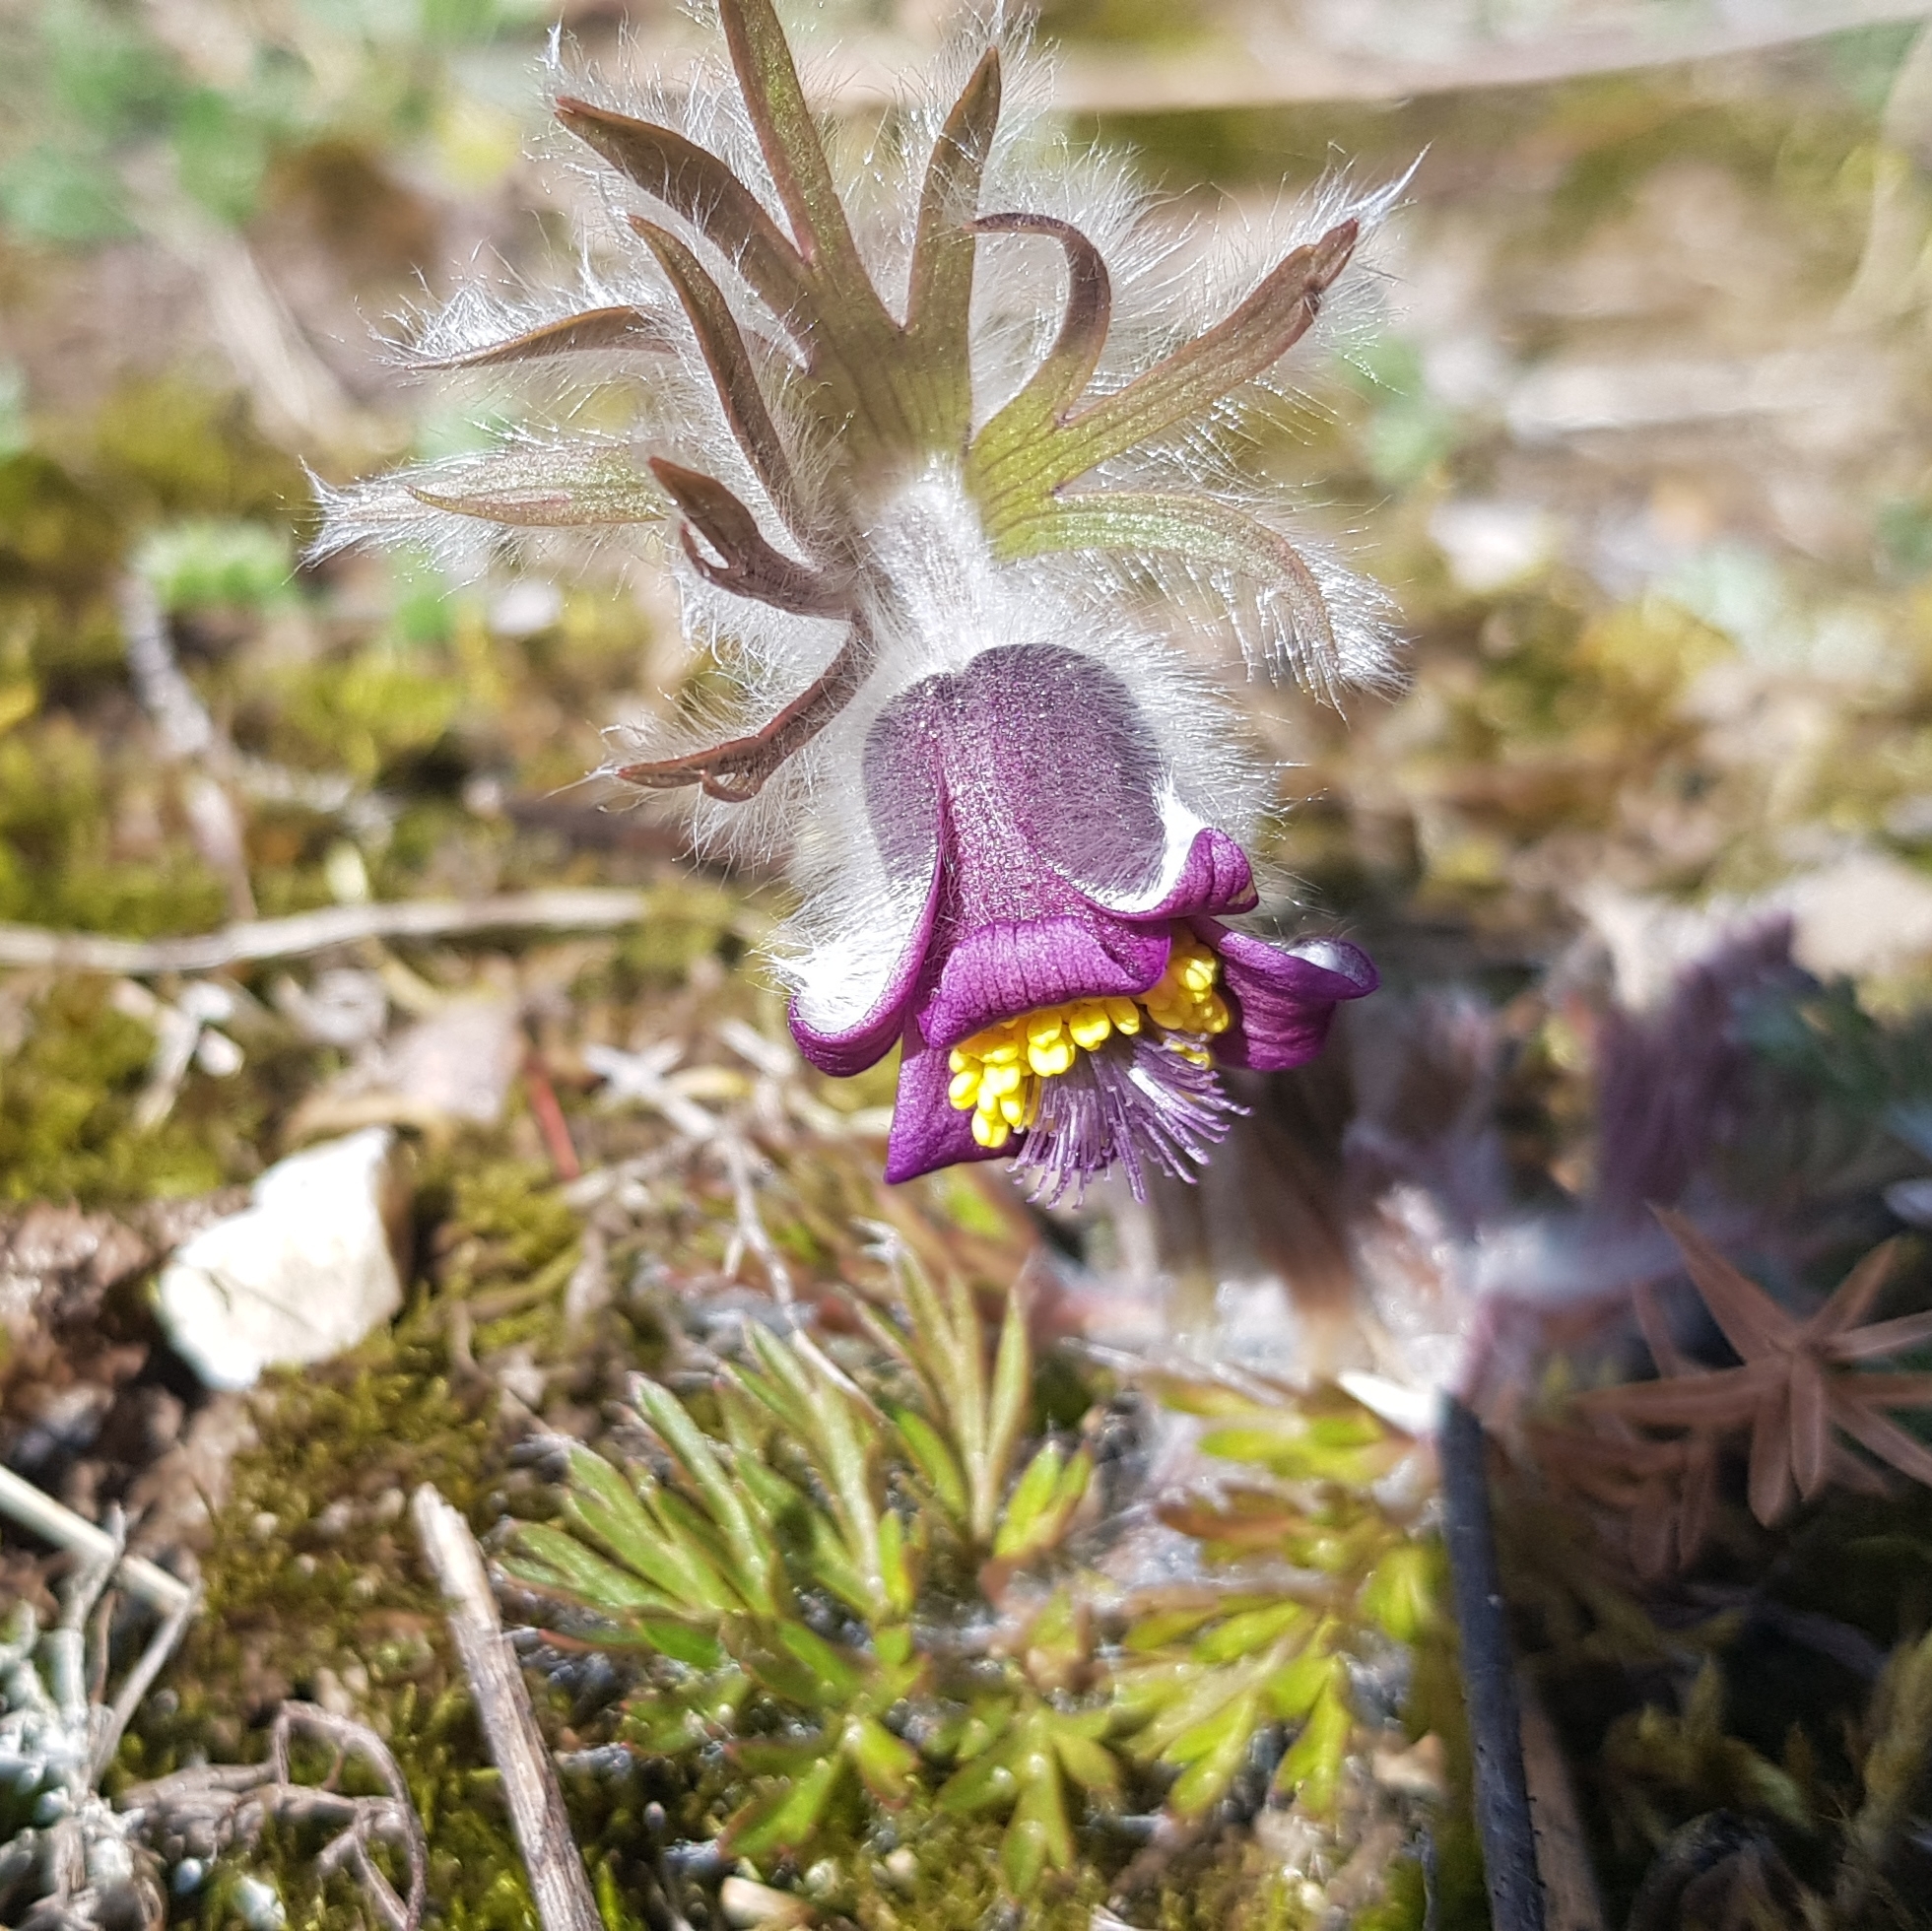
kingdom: Plantae
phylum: Tracheophyta
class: Magnoliopsida
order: Ranunculales
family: Ranunculaceae
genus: Pulsatilla
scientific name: Pulsatilla pratensis
